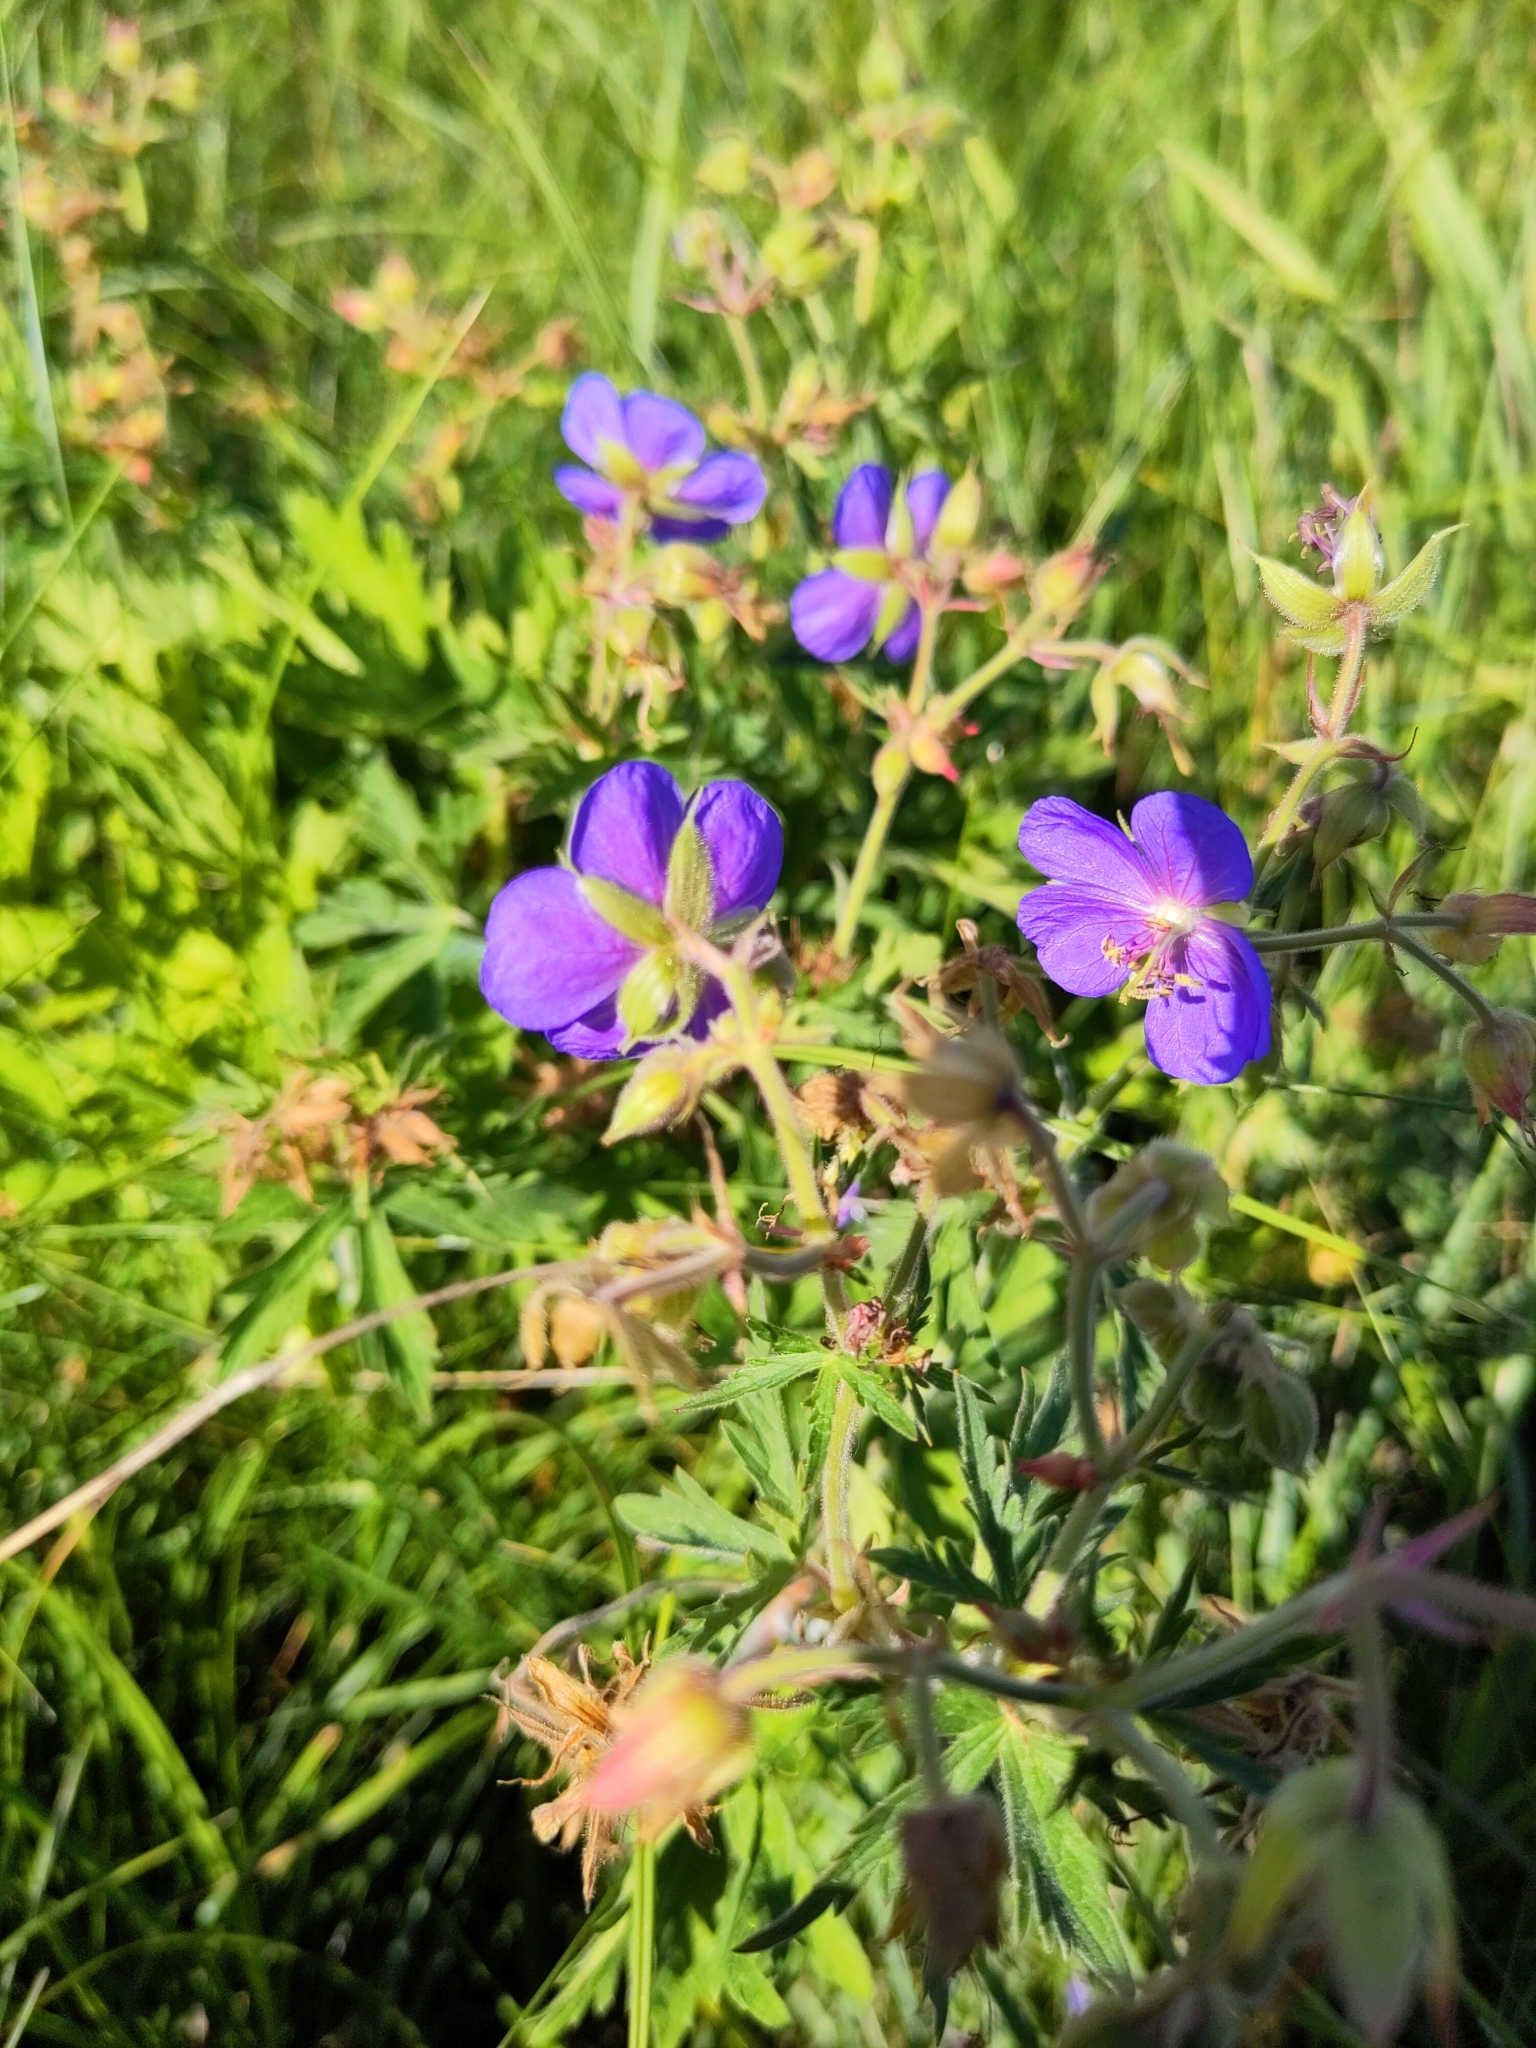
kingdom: Plantae
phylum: Tracheophyta
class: Magnoliopsida
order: Geraniales
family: Geraniaceae
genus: Geranium
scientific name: Geranium pratense
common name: Meadow crane's-bill
